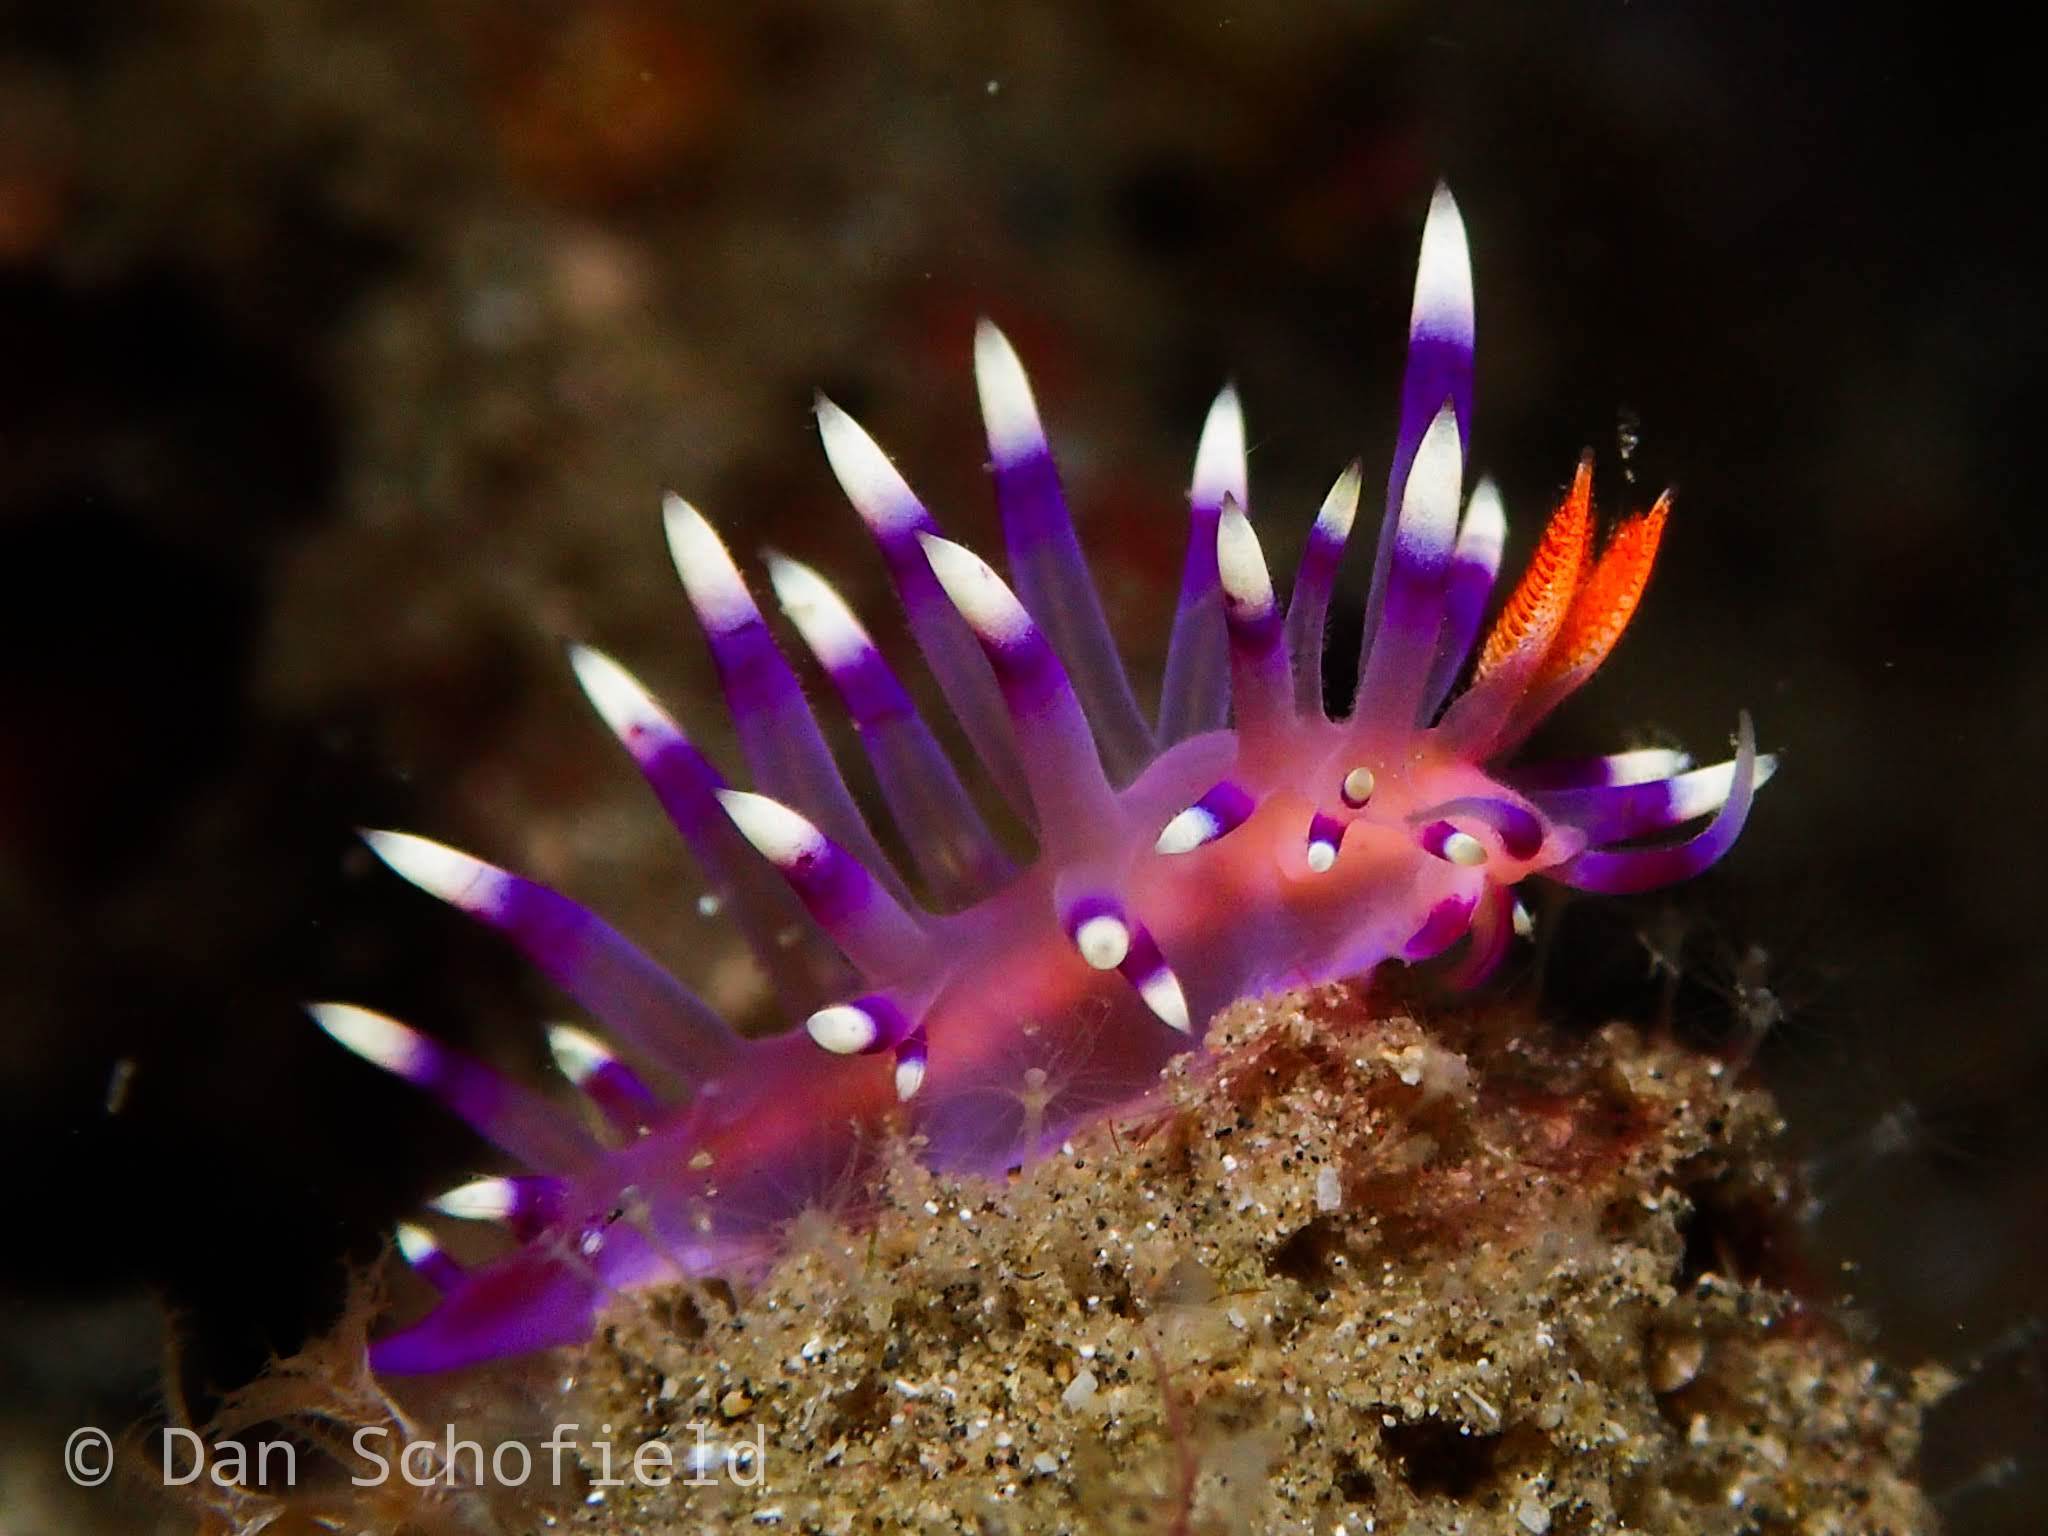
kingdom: Animalia
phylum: Mollusca
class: Gastropoda
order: Nudibranchia
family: Flabellinidae
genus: Coryphellina
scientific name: Coryphellina exoptata
